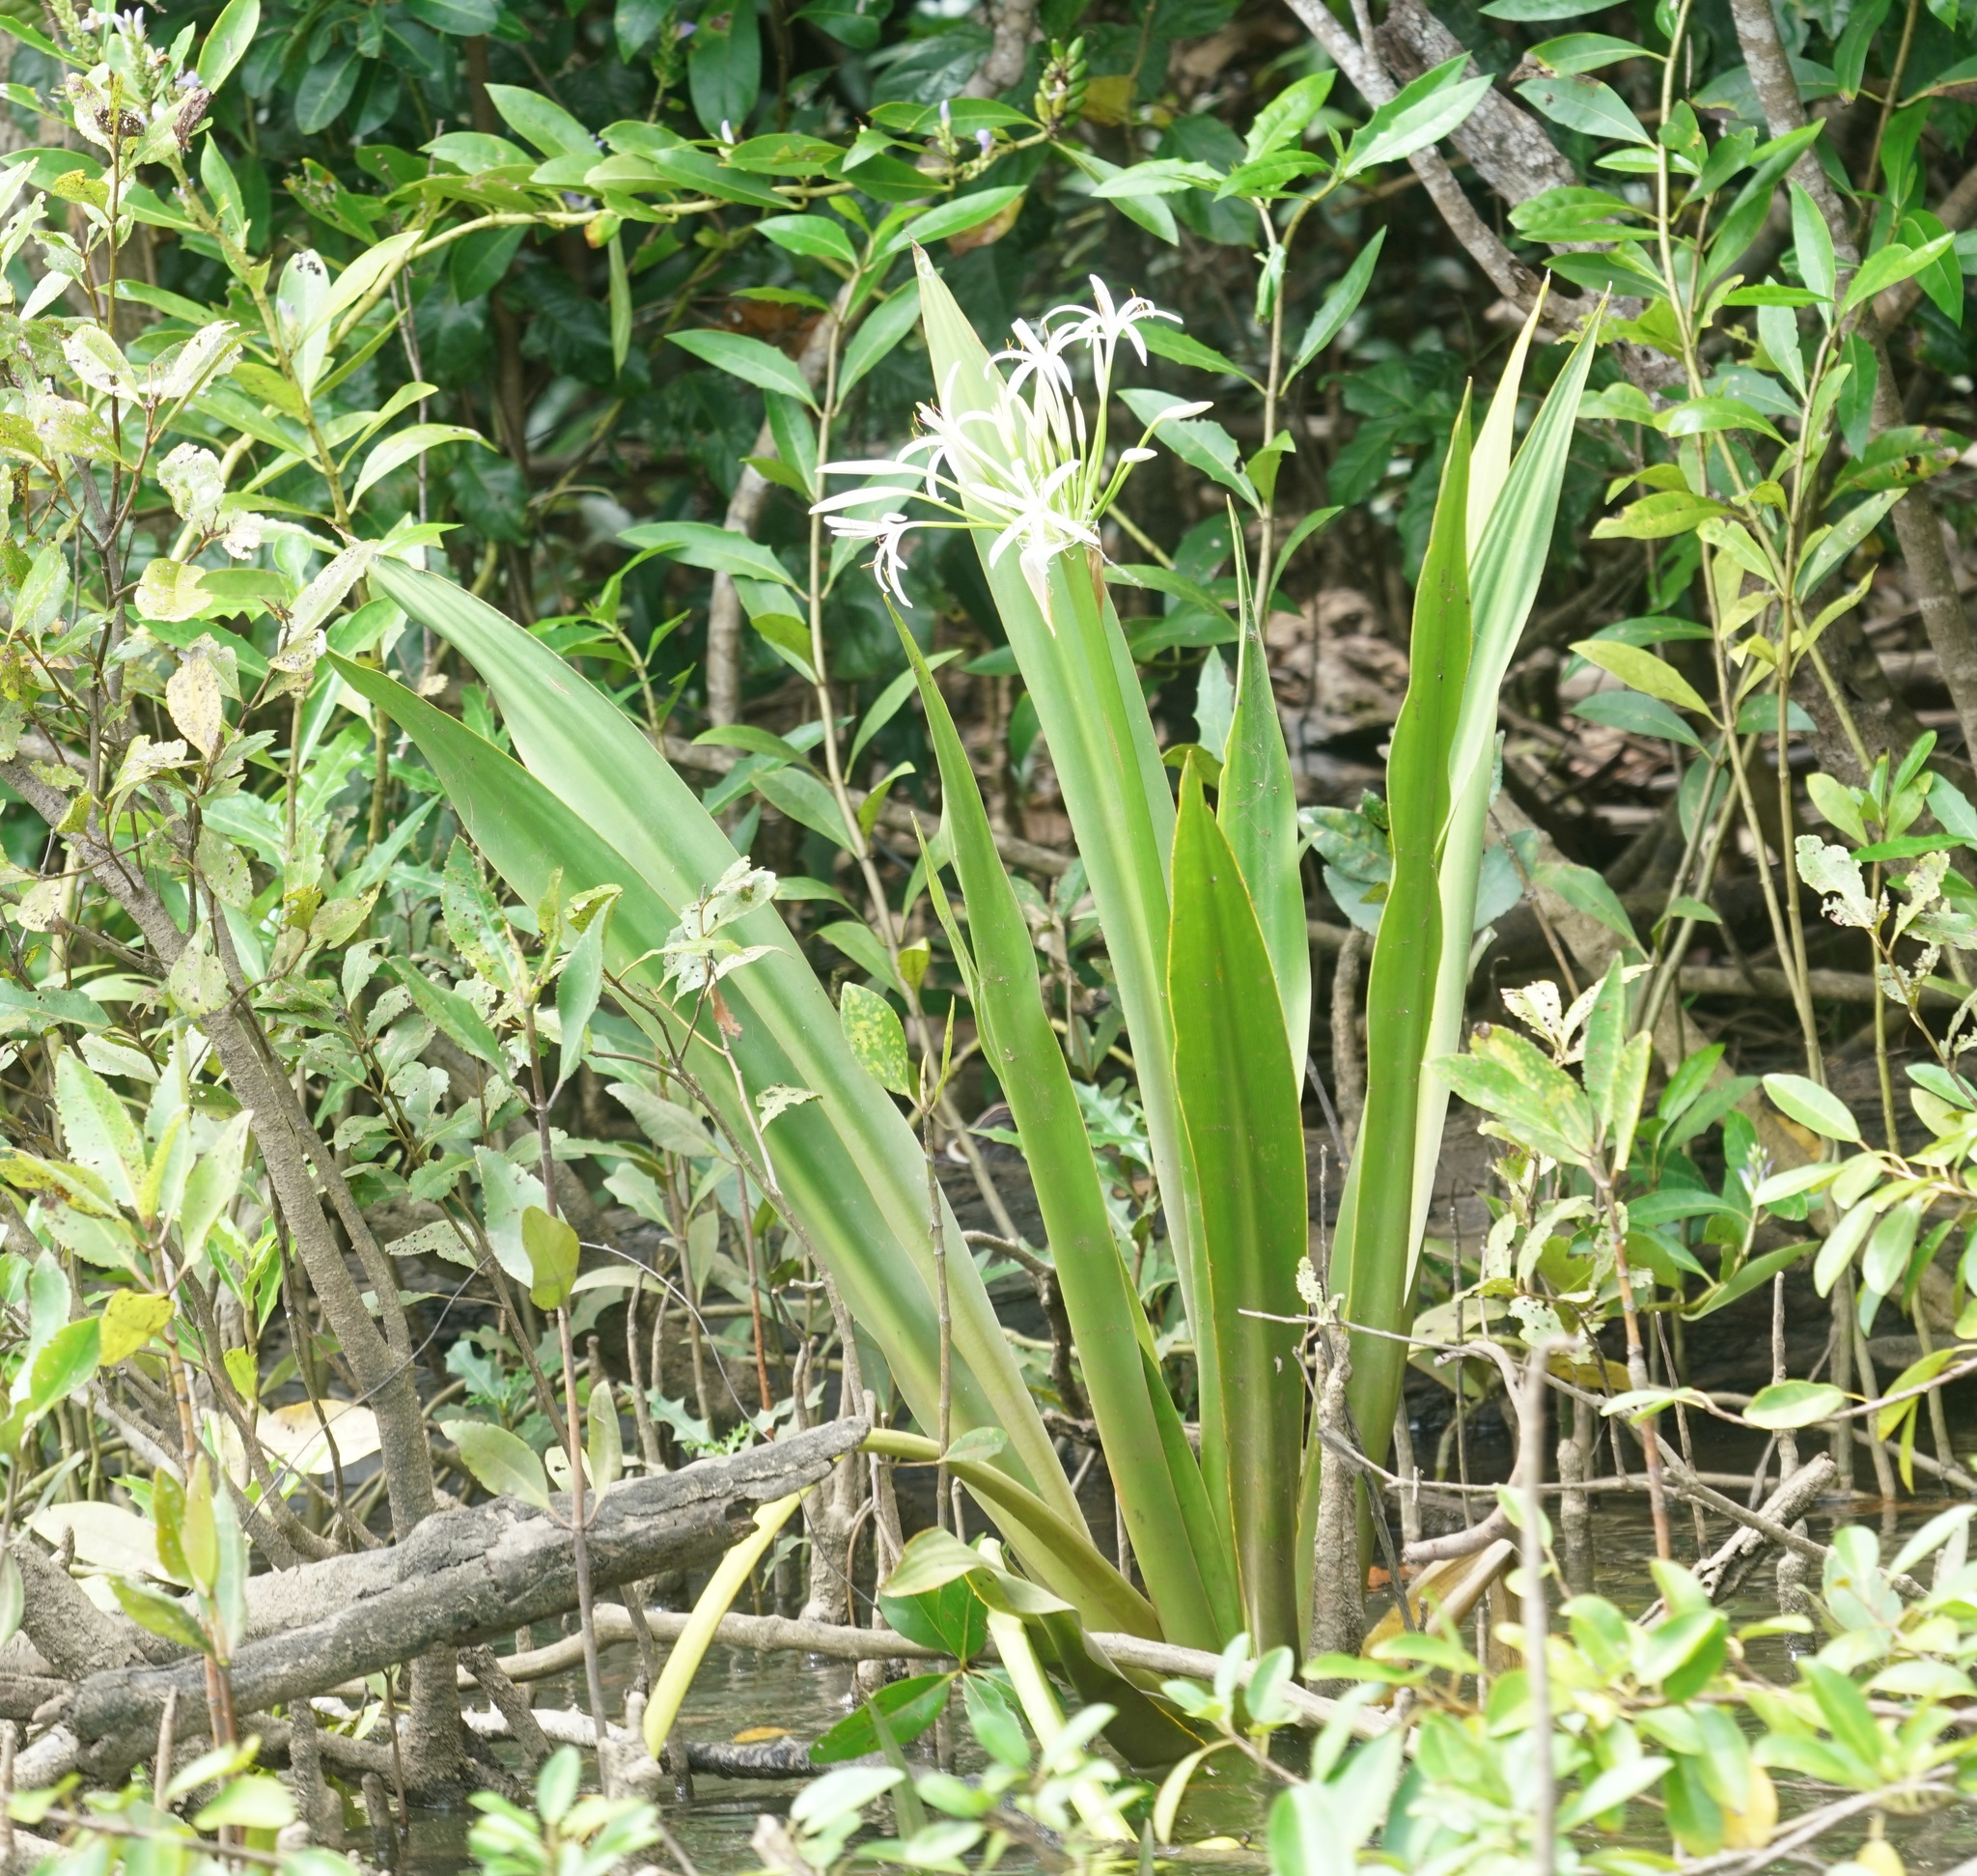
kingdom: Plantae
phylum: Tracheophyta
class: Liliopsida
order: Asparagales
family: Amaryllidaceae
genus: Crinum
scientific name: Crinum pedunculatum
